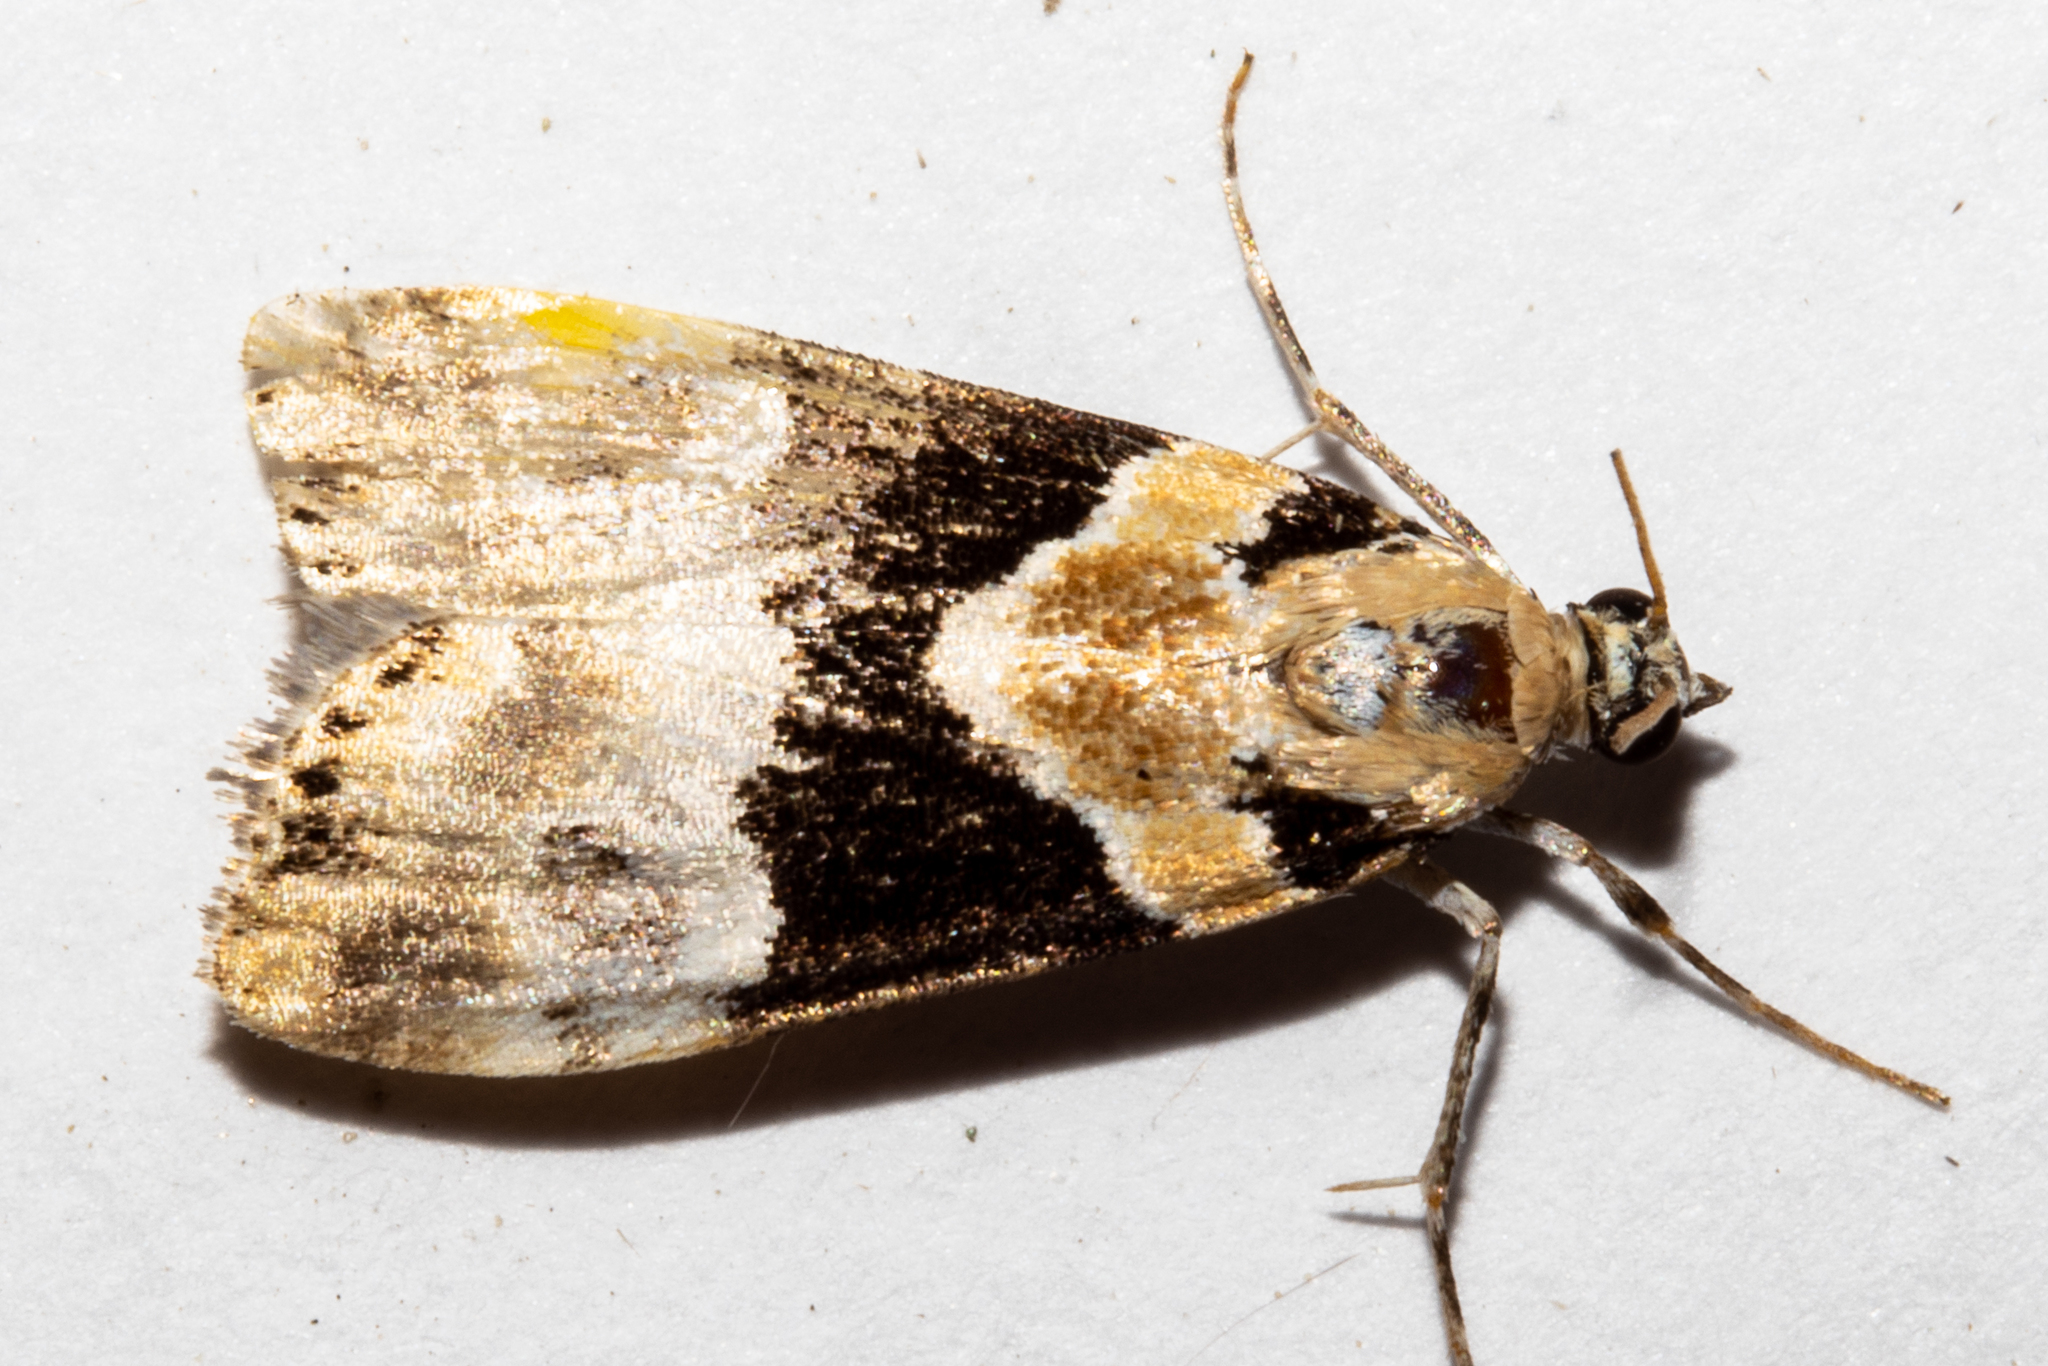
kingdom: Animalia
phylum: Arthropoda
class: Insecta
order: Lepidoptera
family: Crambidae
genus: Eudonia
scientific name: Eudonia aspidota
